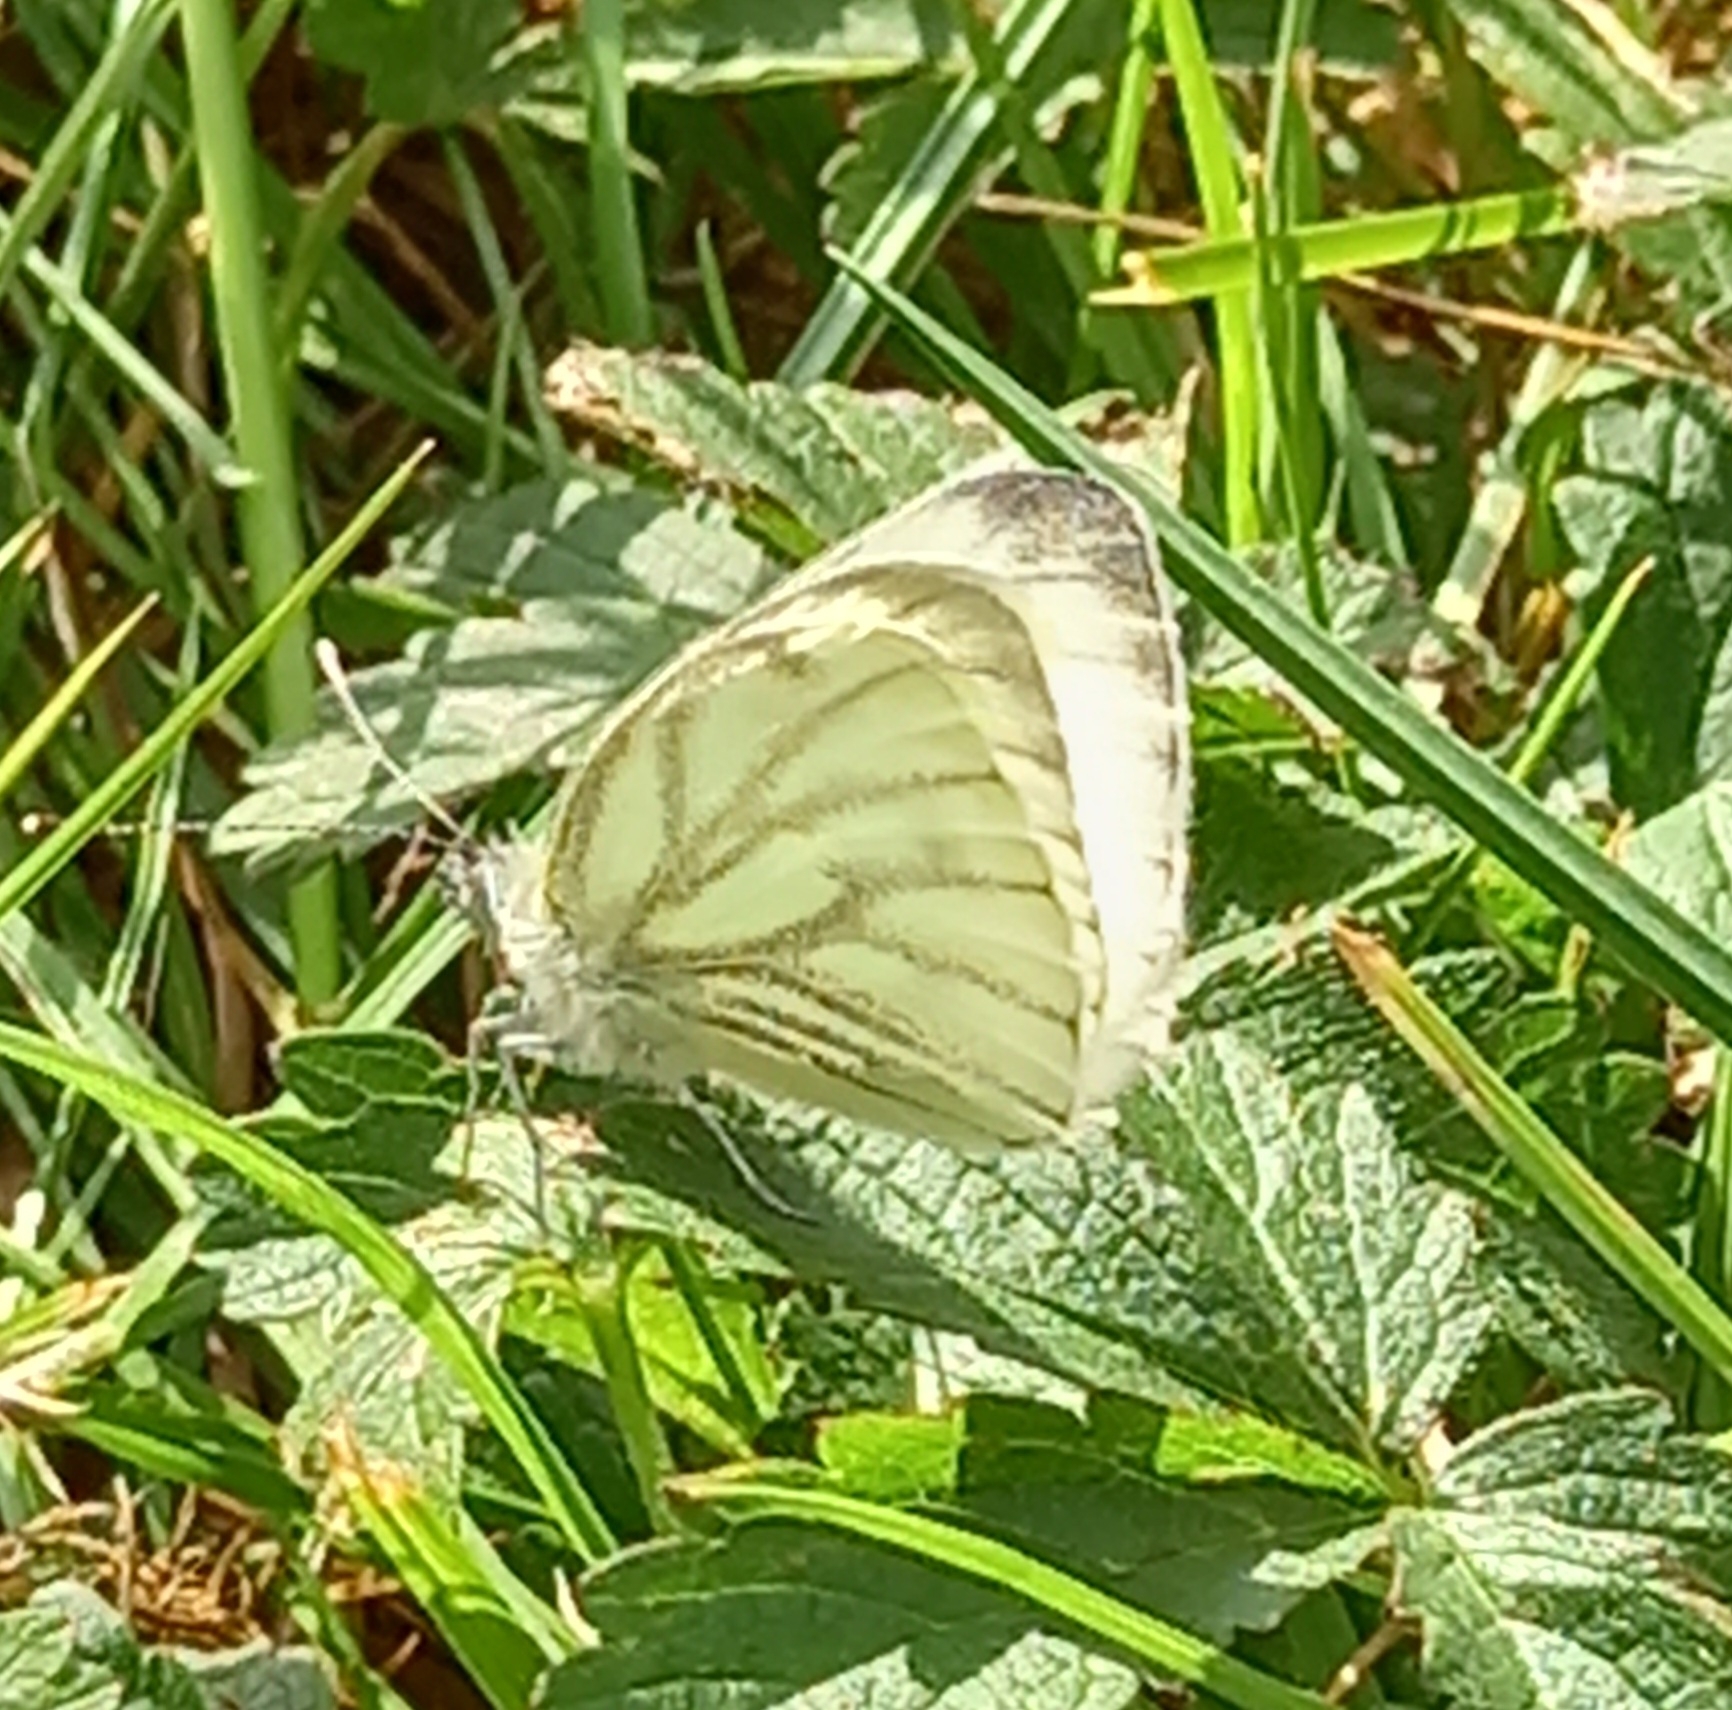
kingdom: Animalia
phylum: Arthropoda
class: Insecta
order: Lepidoptera
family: Pieridae
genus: Pieris
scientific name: Pieris napi
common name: Green-veined white
